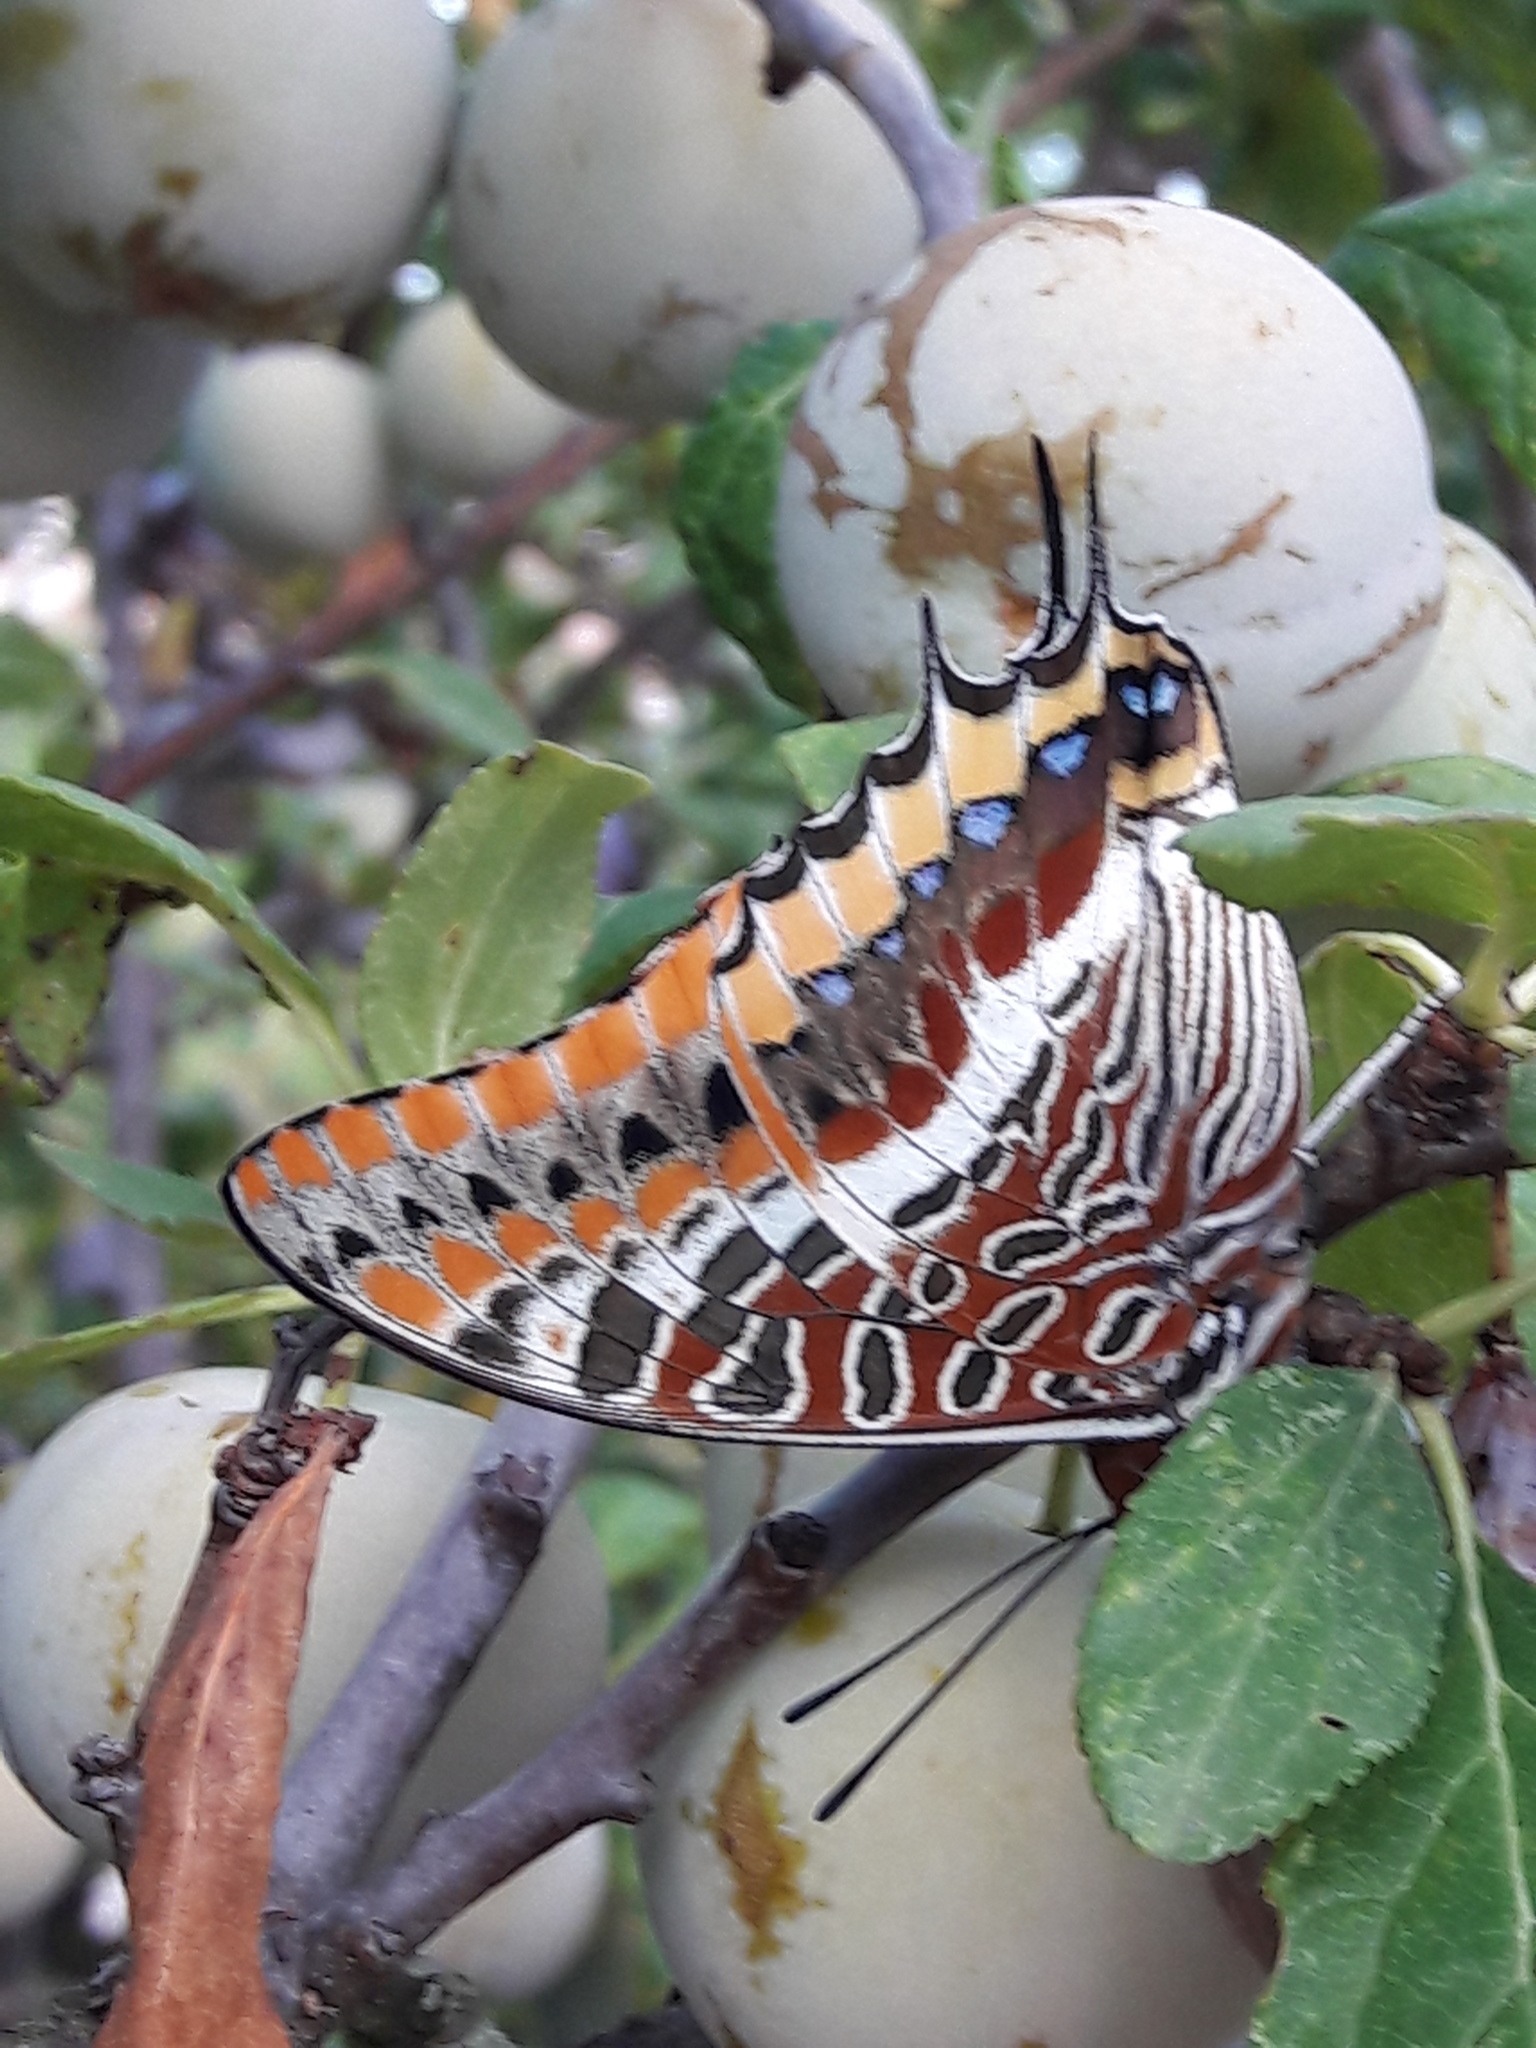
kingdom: Animalia
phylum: Arthropoda
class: Insecta
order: Lepidoptera
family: Nymphalidae
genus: Charaxes
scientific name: Charaxes jasius
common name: Two tailed pasha
